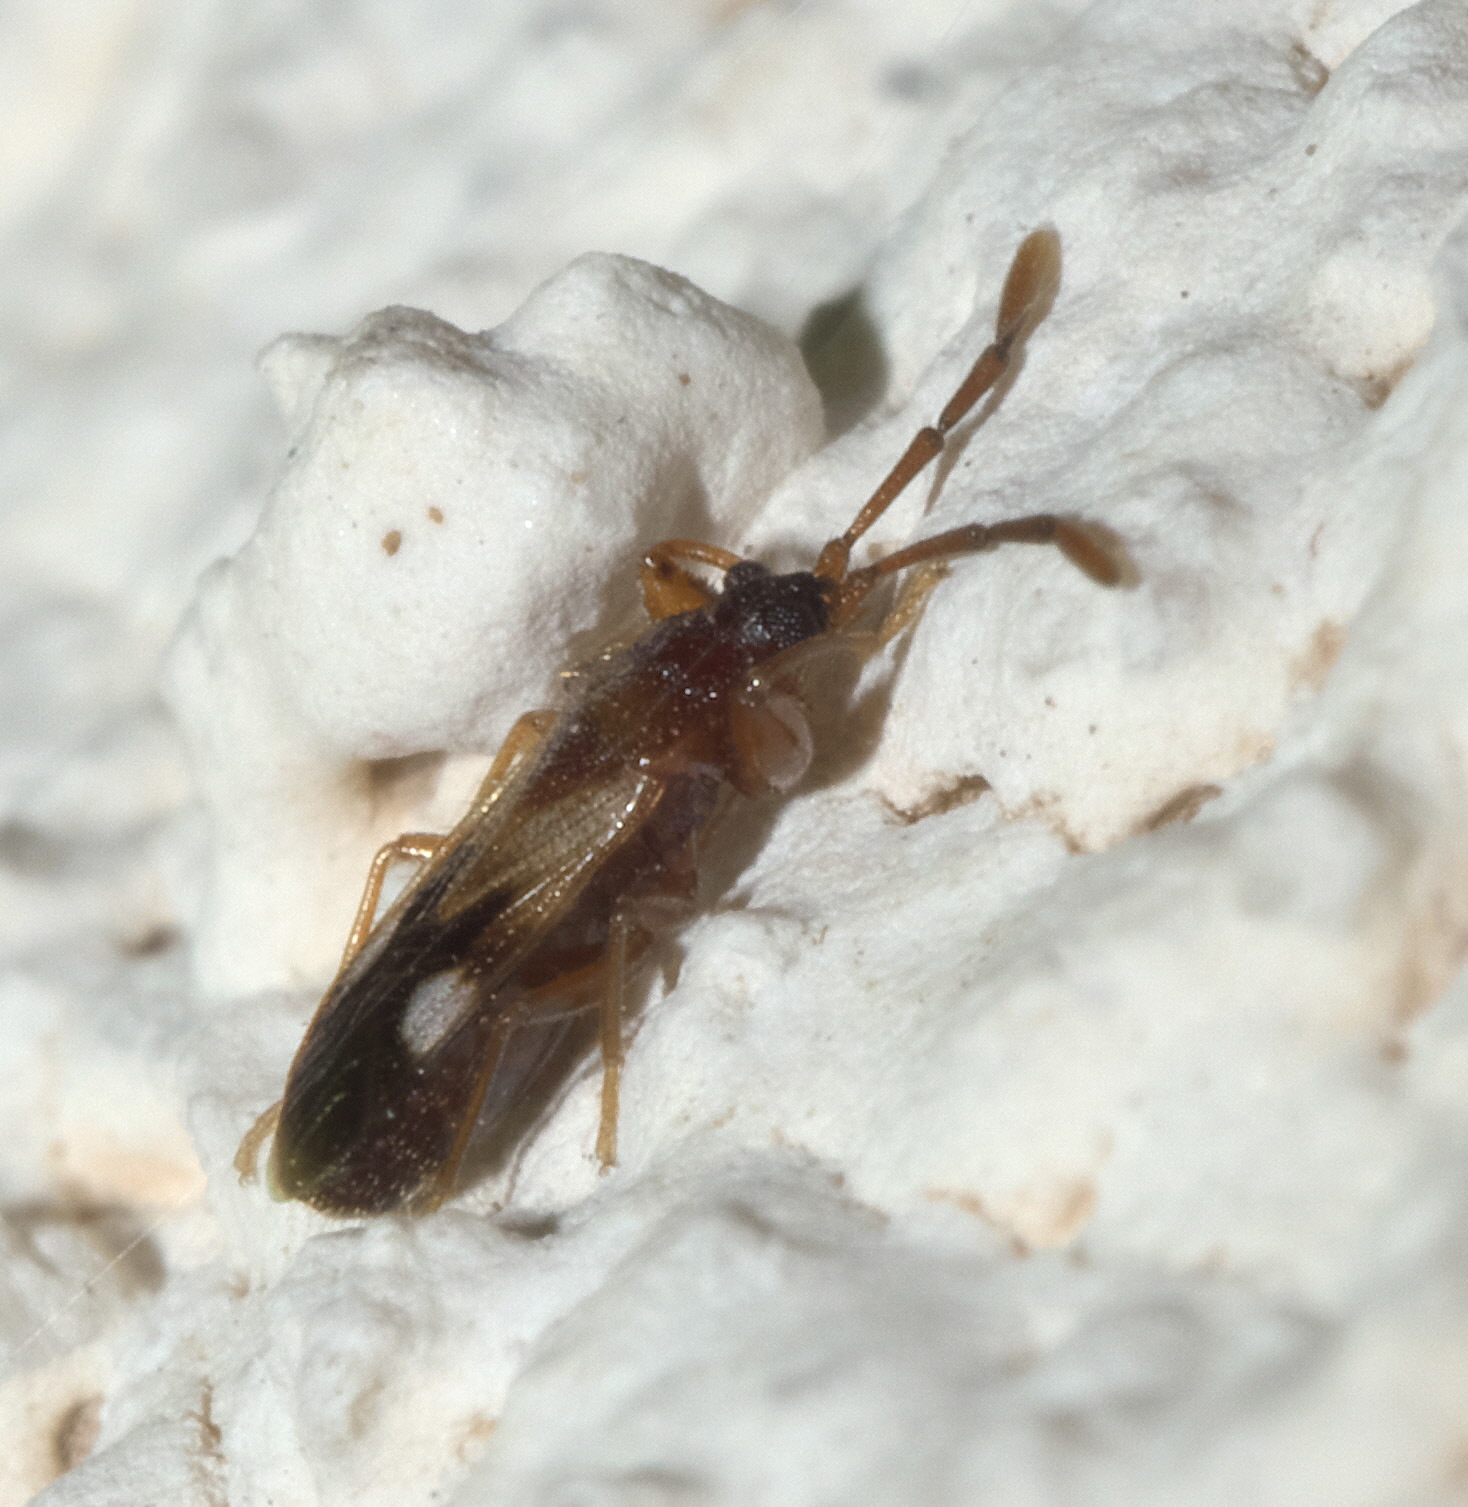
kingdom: Animalia
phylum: Arthropoda
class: Insecta
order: Hemiptera
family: Rhyparochromidae
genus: Tempyra
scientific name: Tempyra biguttula
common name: Seed bug
